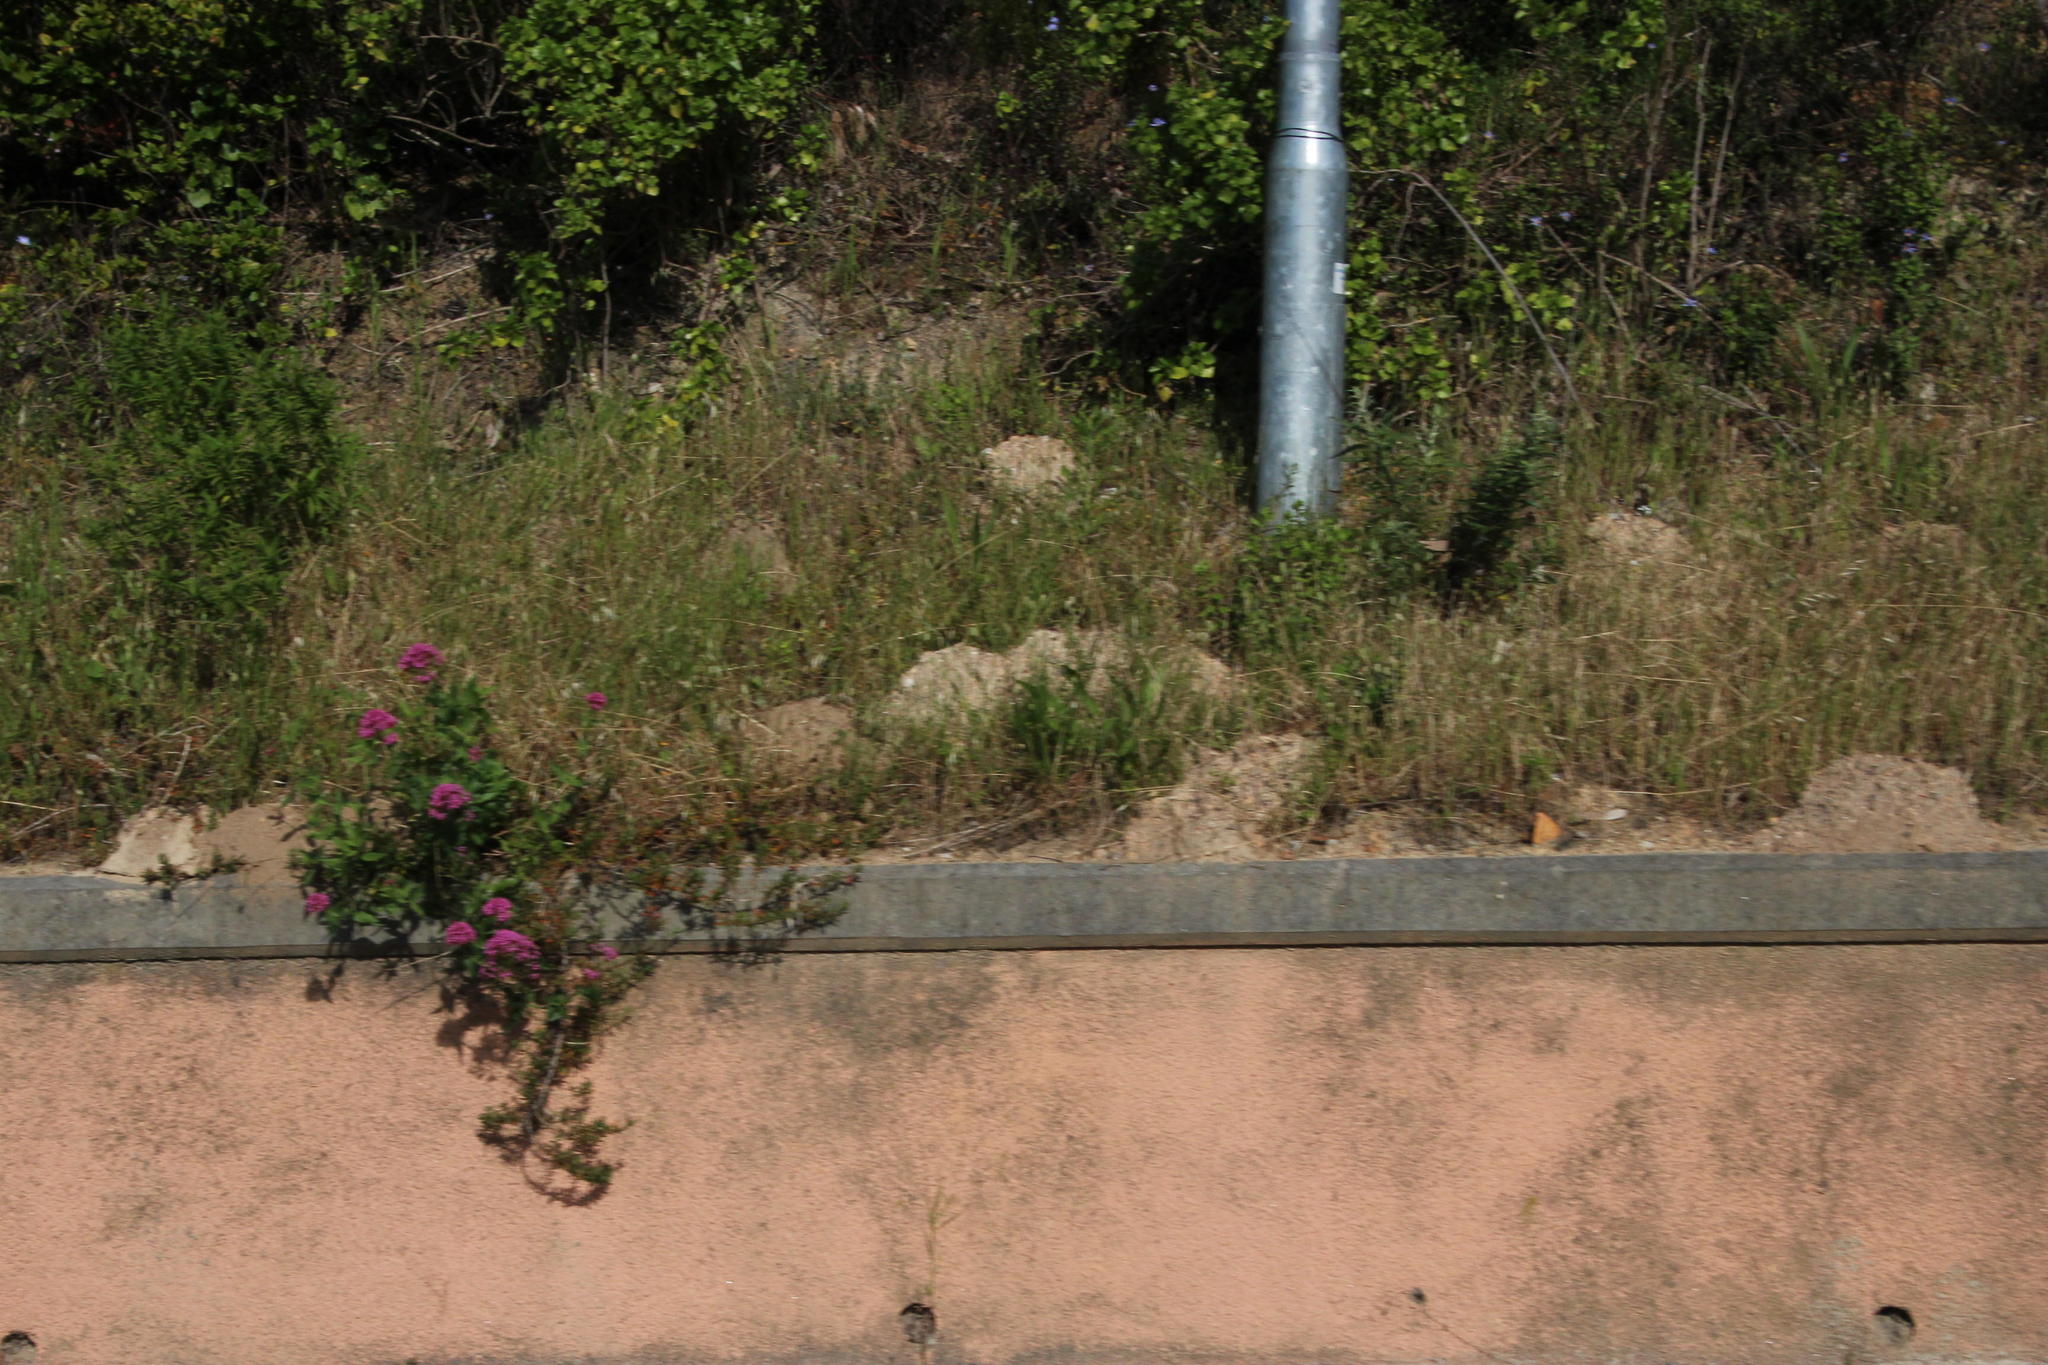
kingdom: Plantae
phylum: Tracheophyta
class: Magnoliopsida
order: Dipsacales
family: Caprifoliaceae
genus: Centranthus
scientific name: Centranthus ruber
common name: Red valerian
